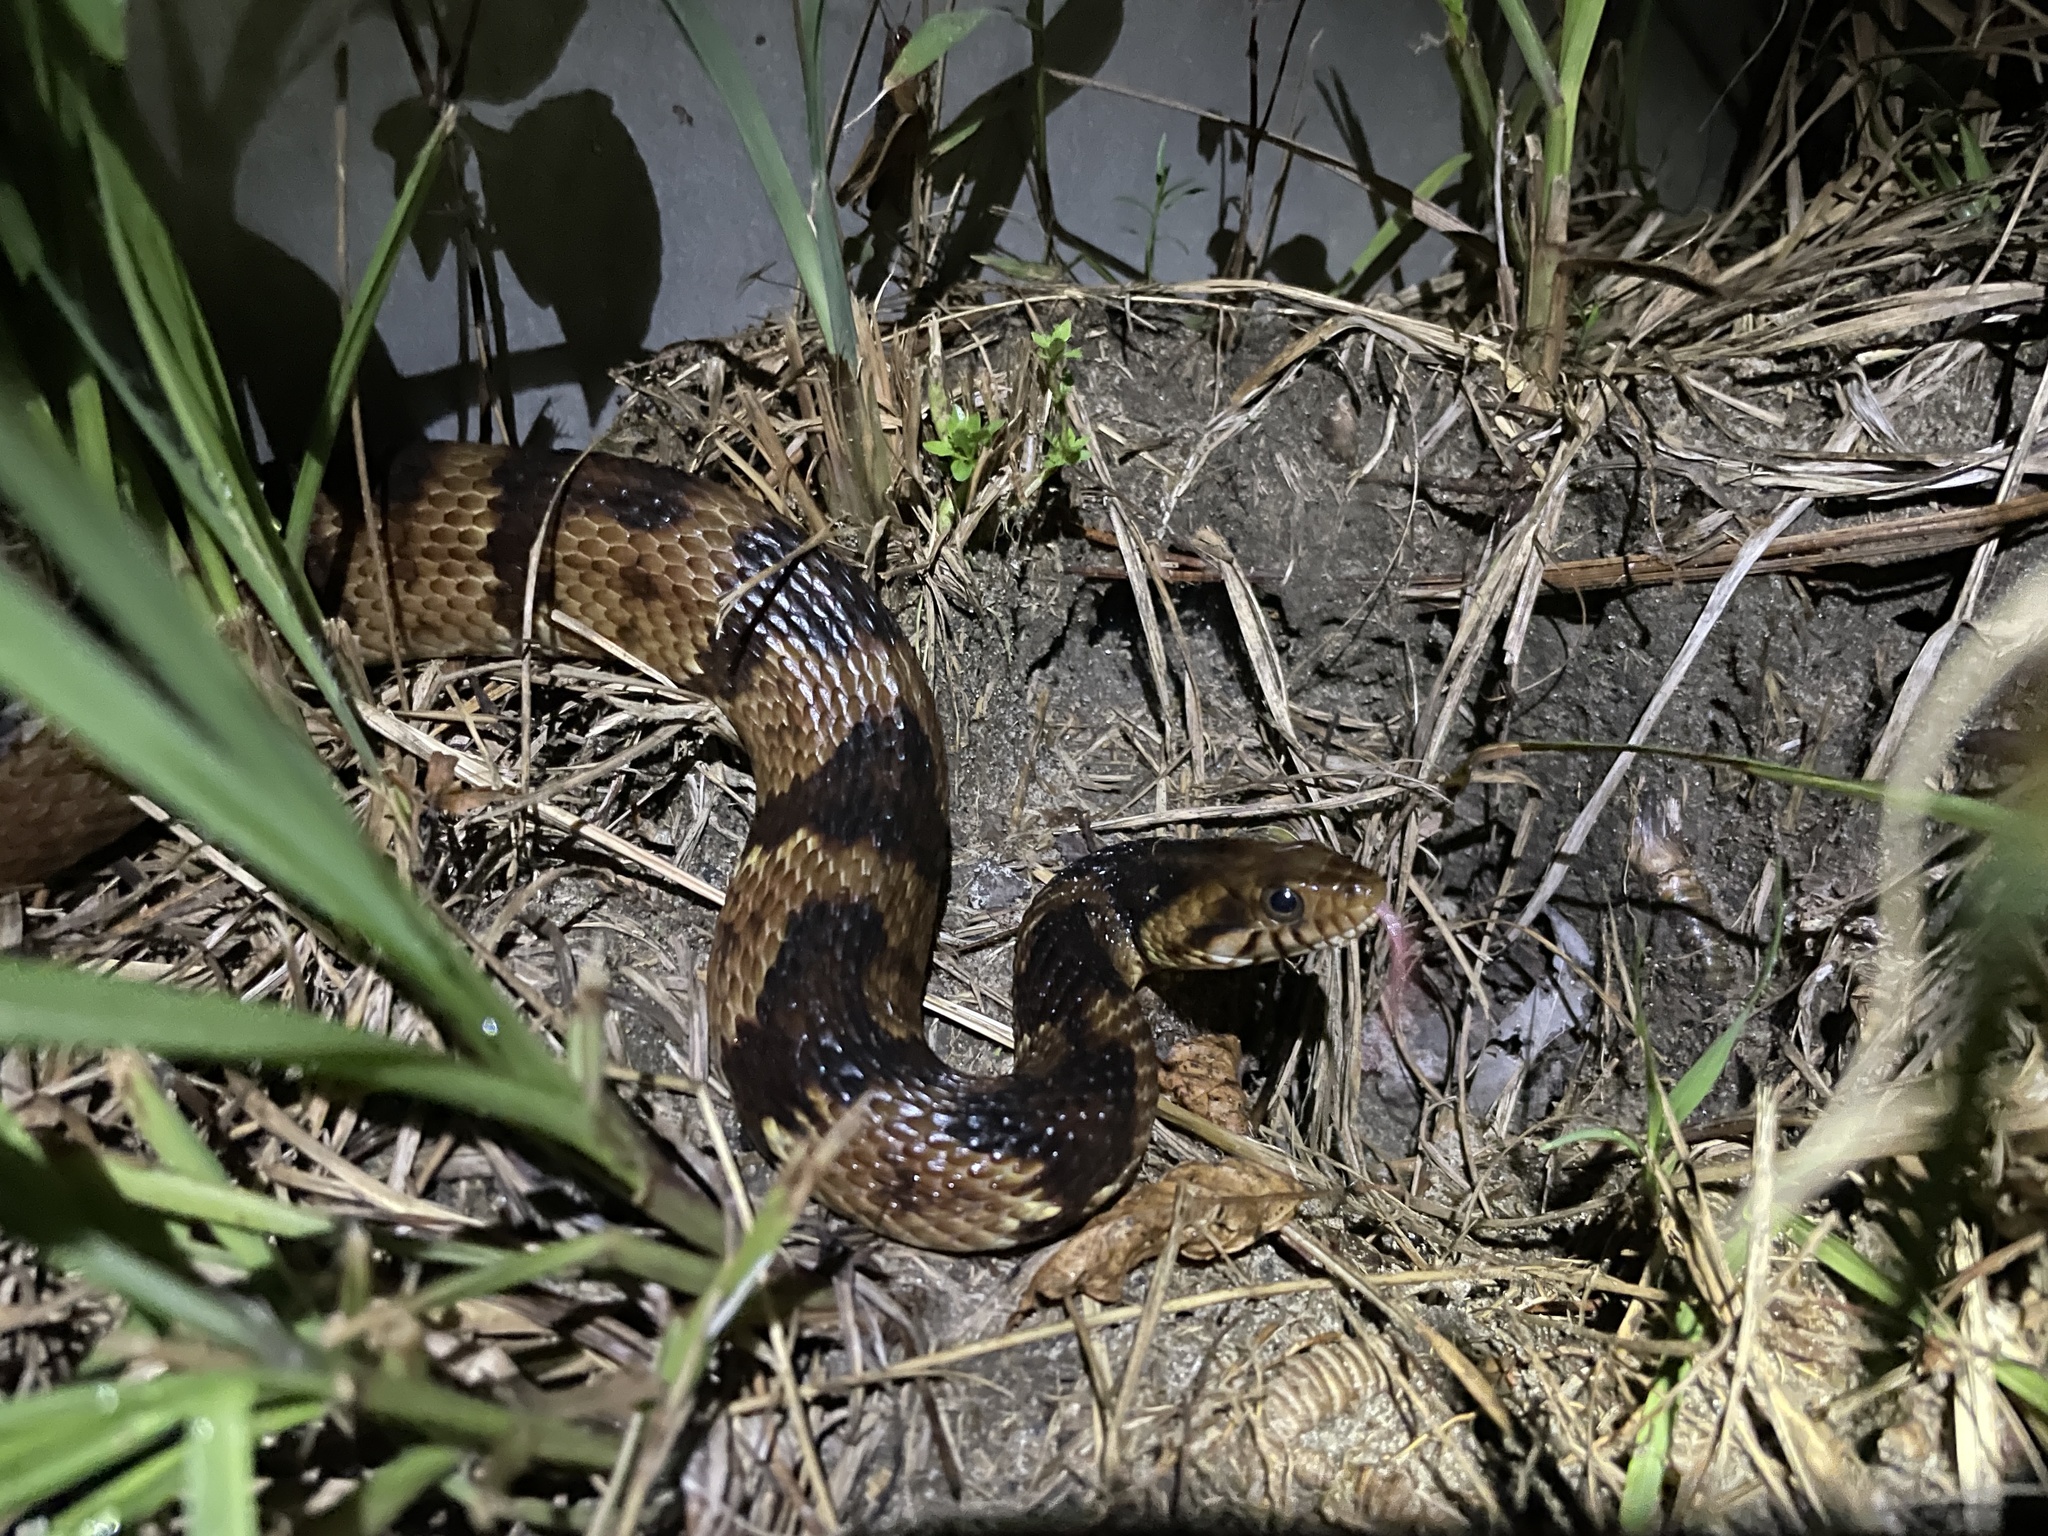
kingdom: Animalia
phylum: Chordata
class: Squamata
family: Colubridae
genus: Nerodia
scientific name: Nerodia fasciata
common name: Southern water snake
